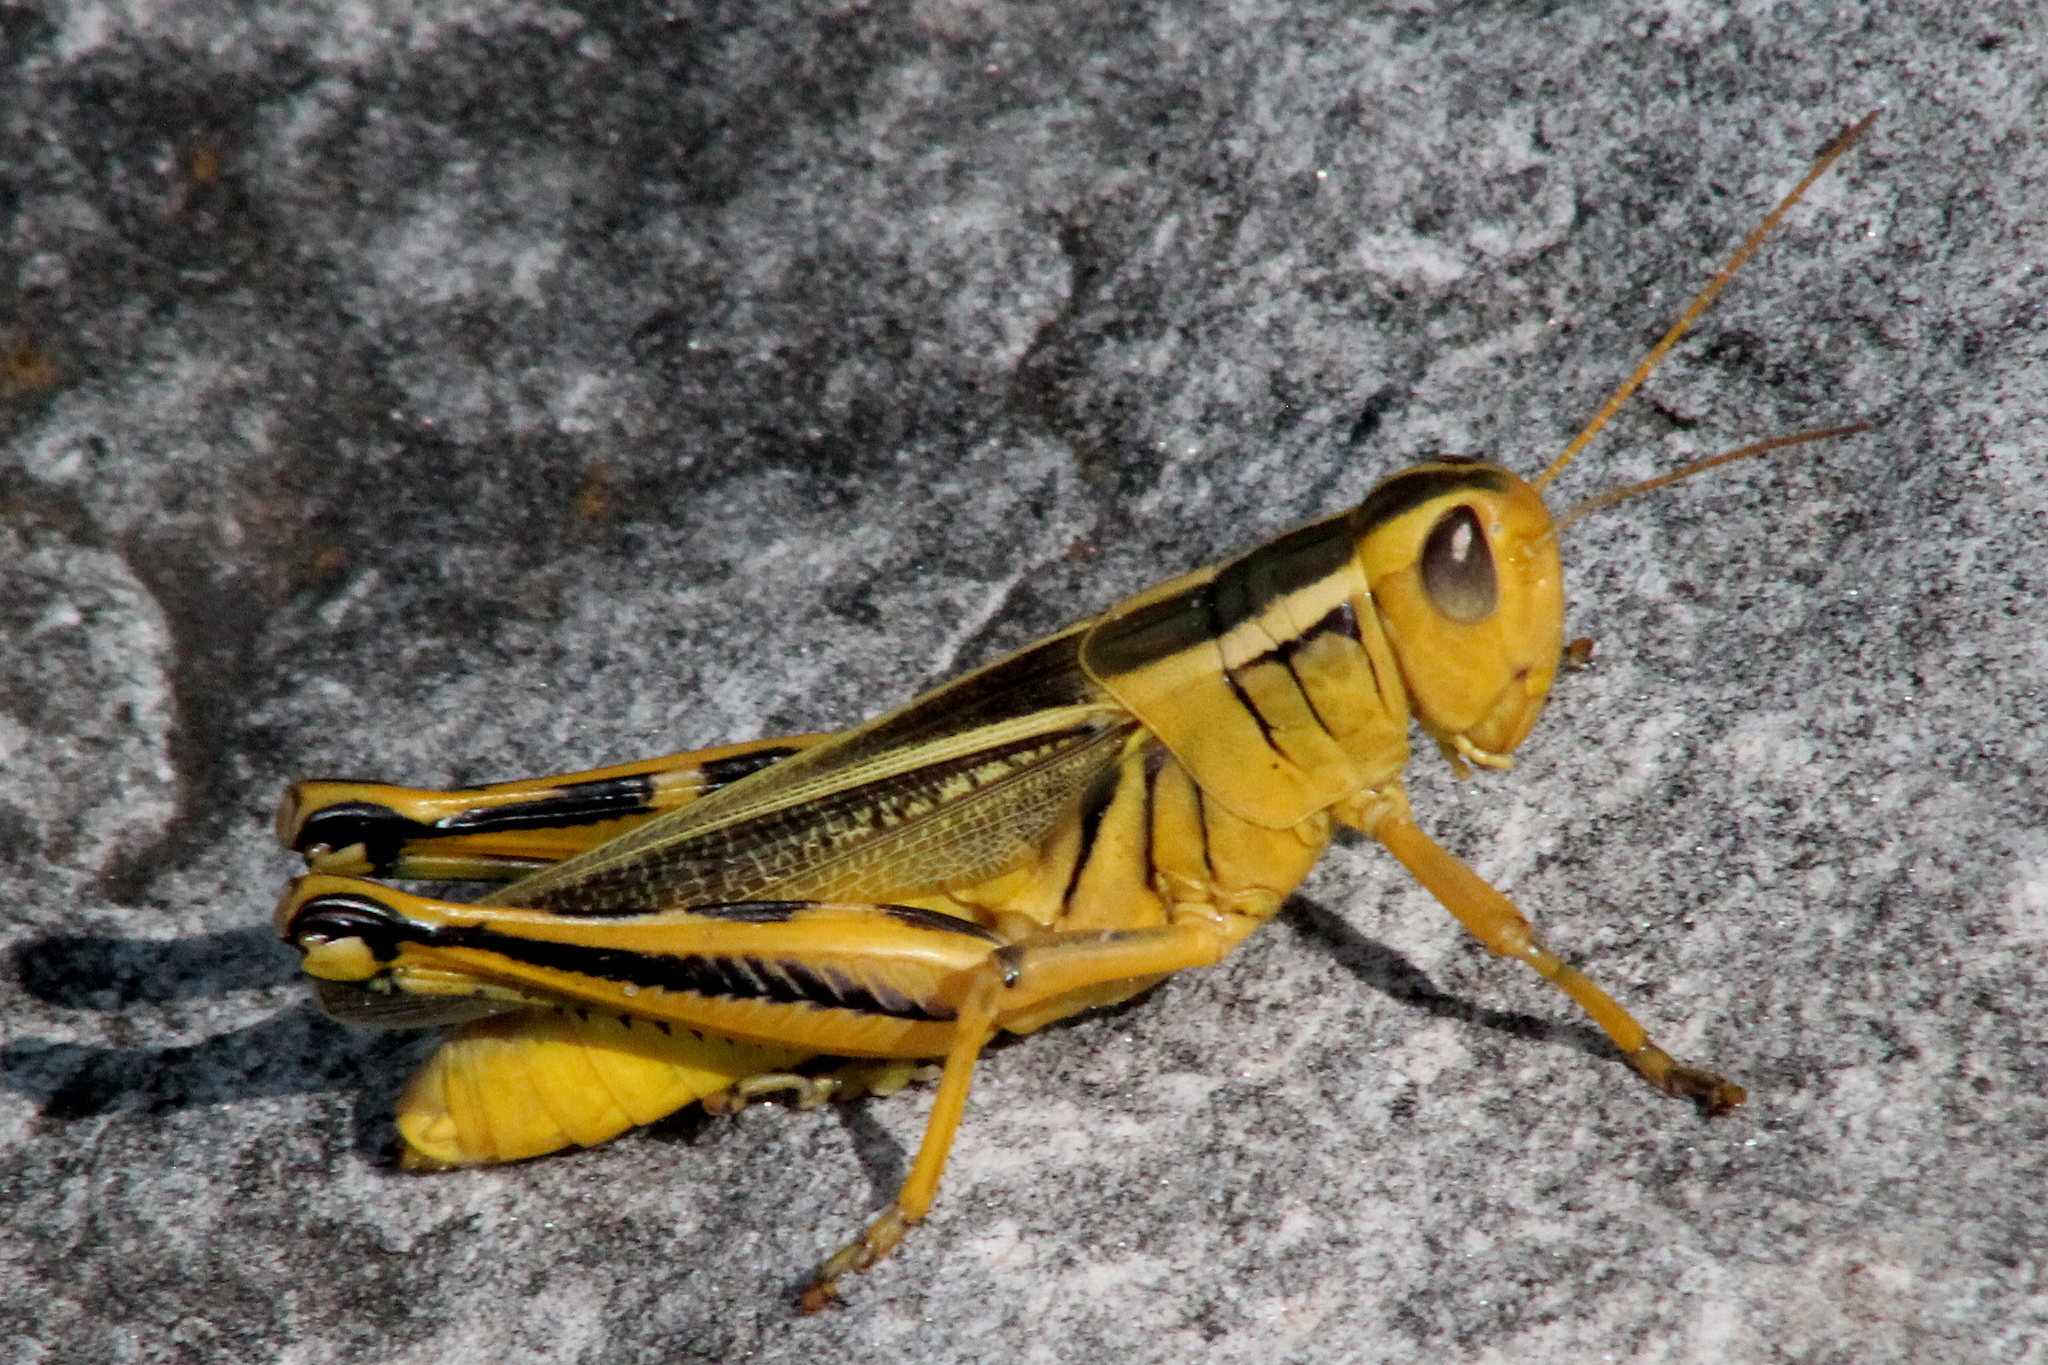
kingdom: Animalia
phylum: Arthropoda
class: Insecta
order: Orthoptera
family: Acrididae
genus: Melanoplus
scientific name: Melanoplus bivittatus
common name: Two-striped grasshopper
